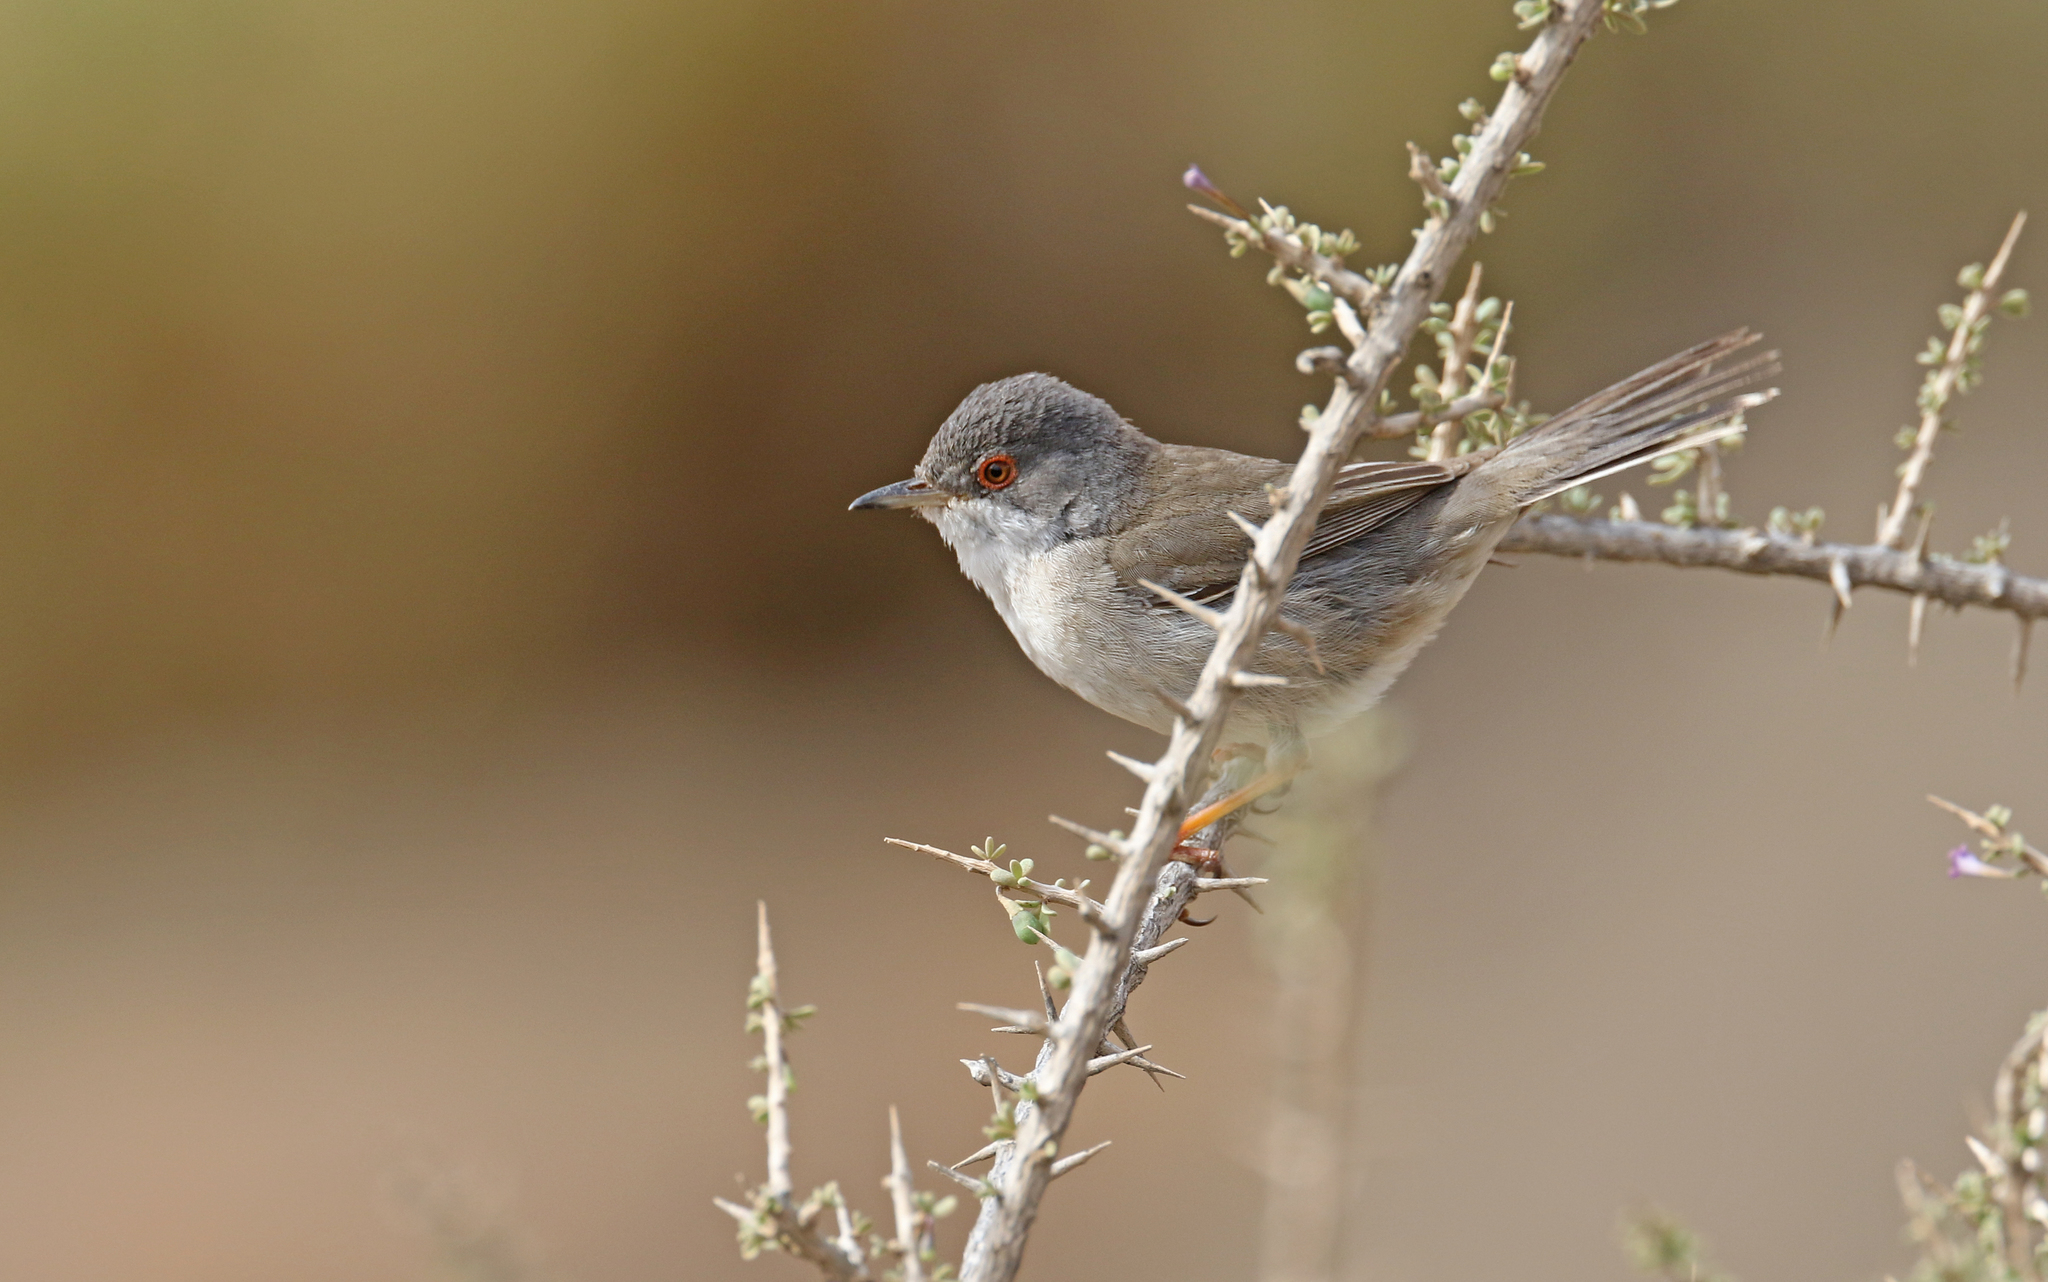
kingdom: Animalia
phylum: Chordata
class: Aves
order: Passeriformes
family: Sylviidae
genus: Curruca
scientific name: Curruca melanocephala
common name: Sardinian warbler
